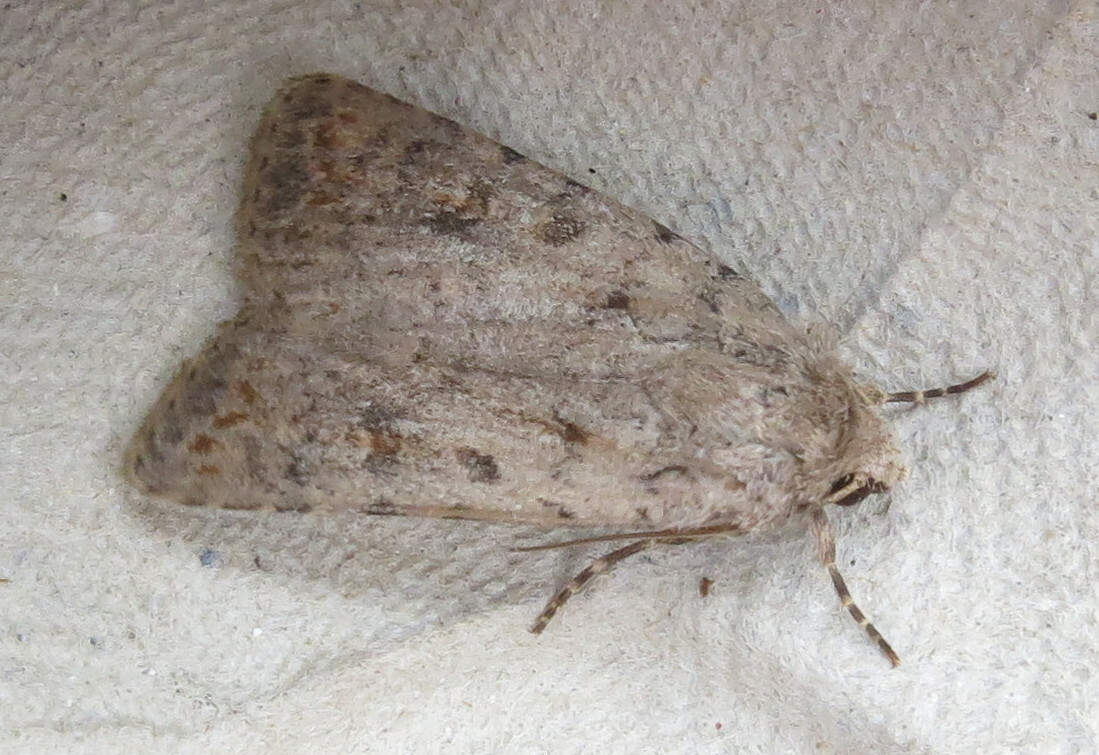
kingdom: Animalia
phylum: Arthropoda
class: Insecta
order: Lepidoptera
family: Noctuidae
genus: Caradrina
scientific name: Caradrina clavipalpis
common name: Pale mottled willow
